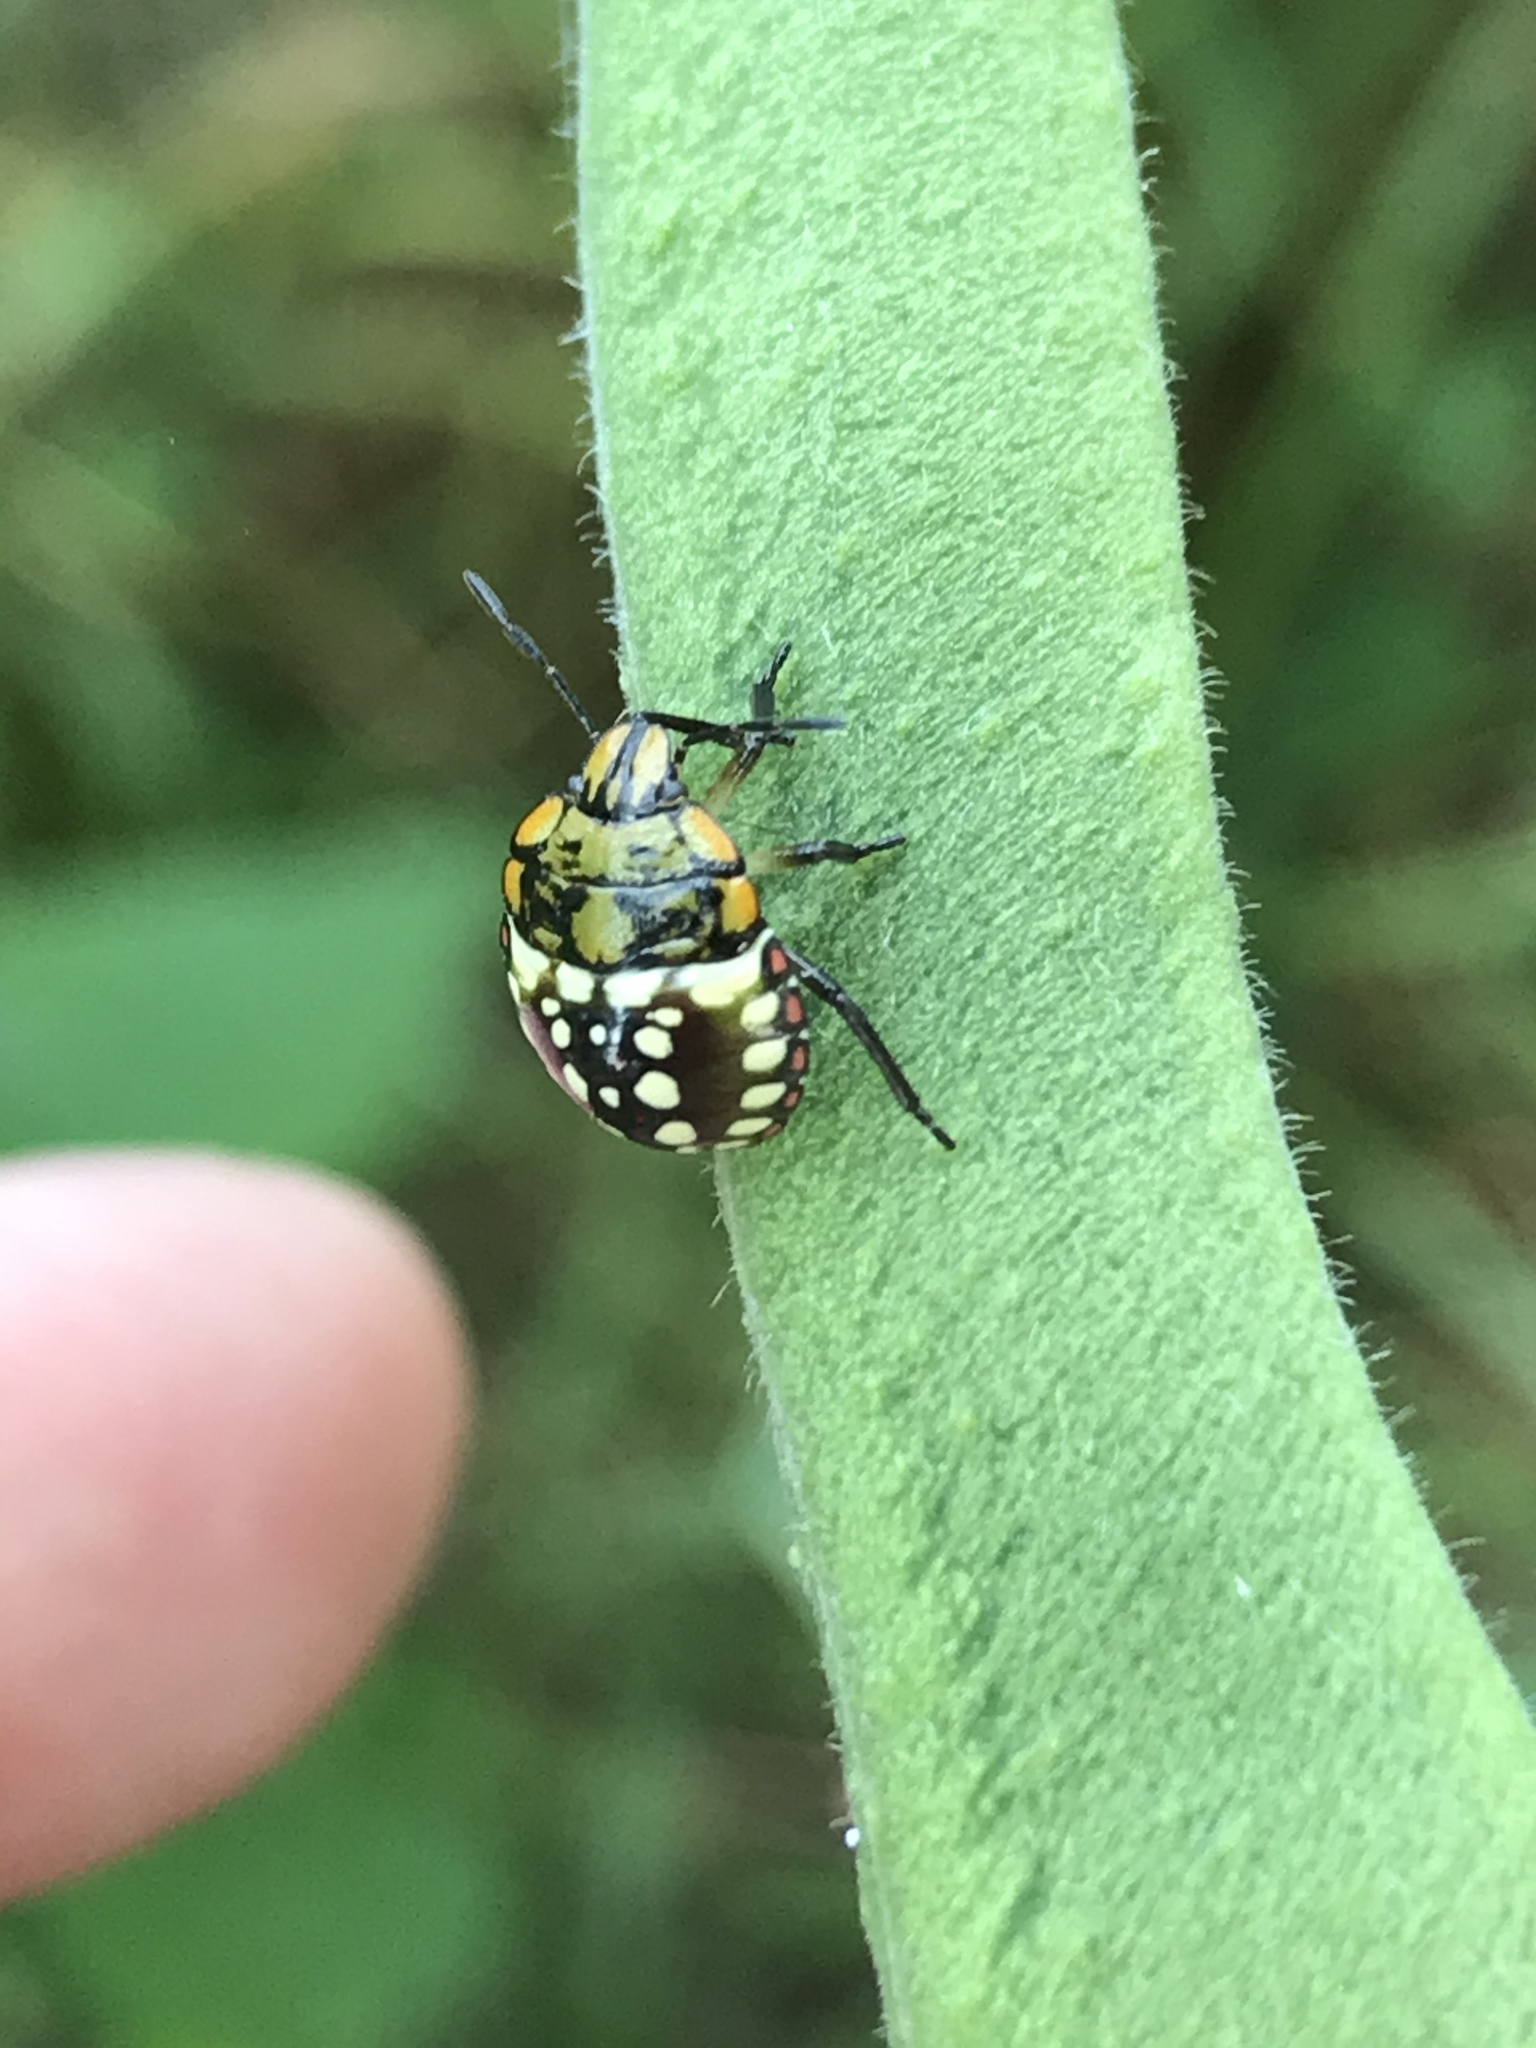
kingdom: Animalia
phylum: Arthropoda
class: Insecta
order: Hemiptera
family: Pentatomidae
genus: Nezara
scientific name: Nezara viridula
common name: Southern green stink bug
